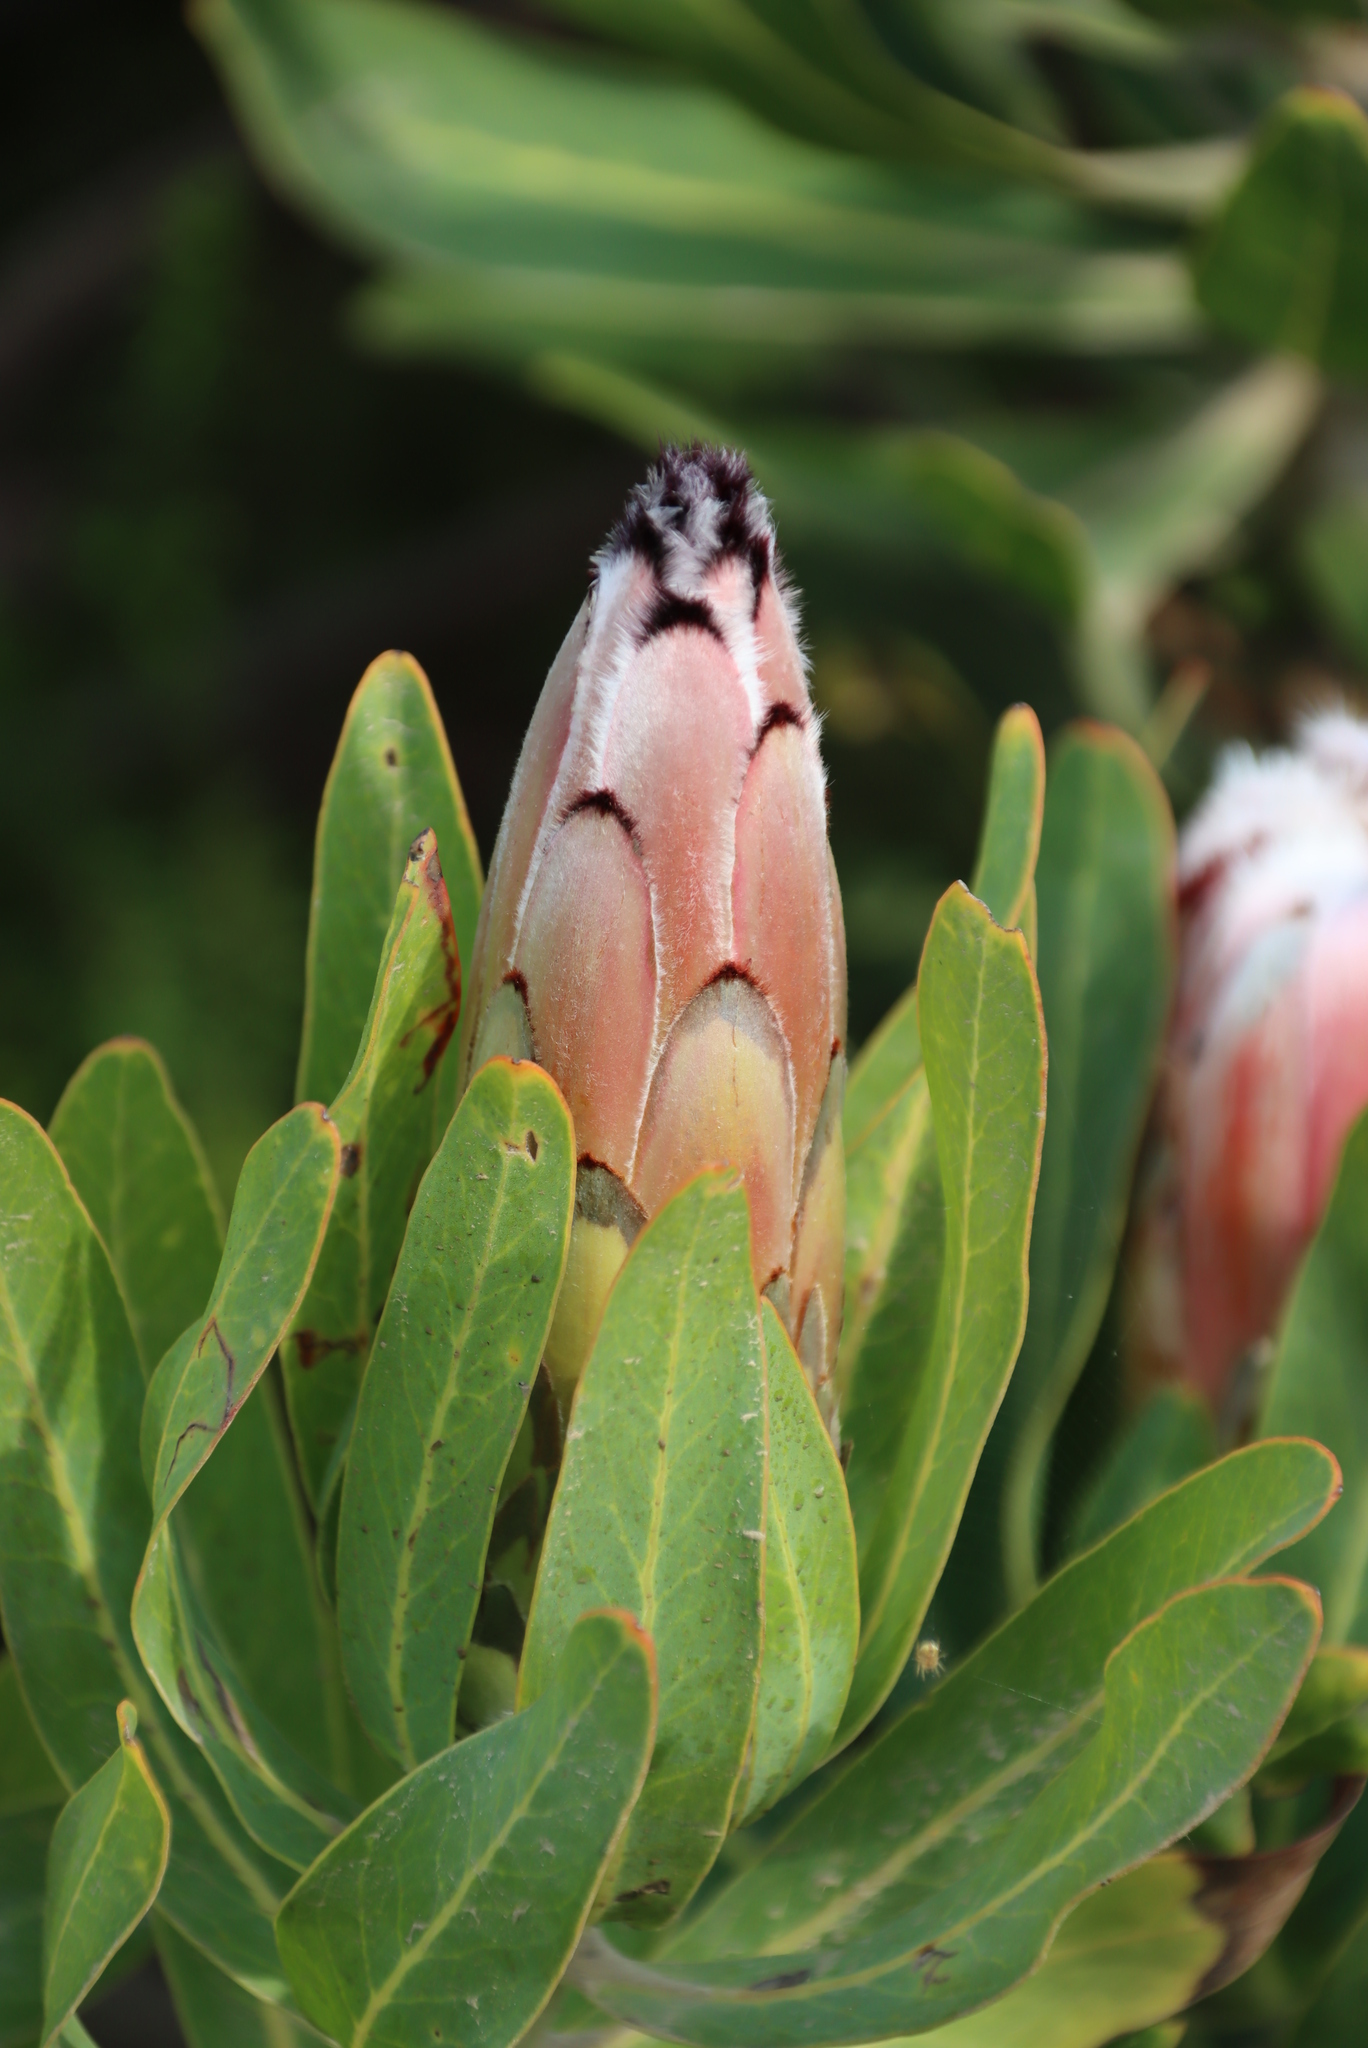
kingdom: Plantae
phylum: Tracheophyta
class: Magnoliopsida
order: Proteales
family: Proteaceae
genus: Protea
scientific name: Protea neriifolia
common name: Blue sugarbush
